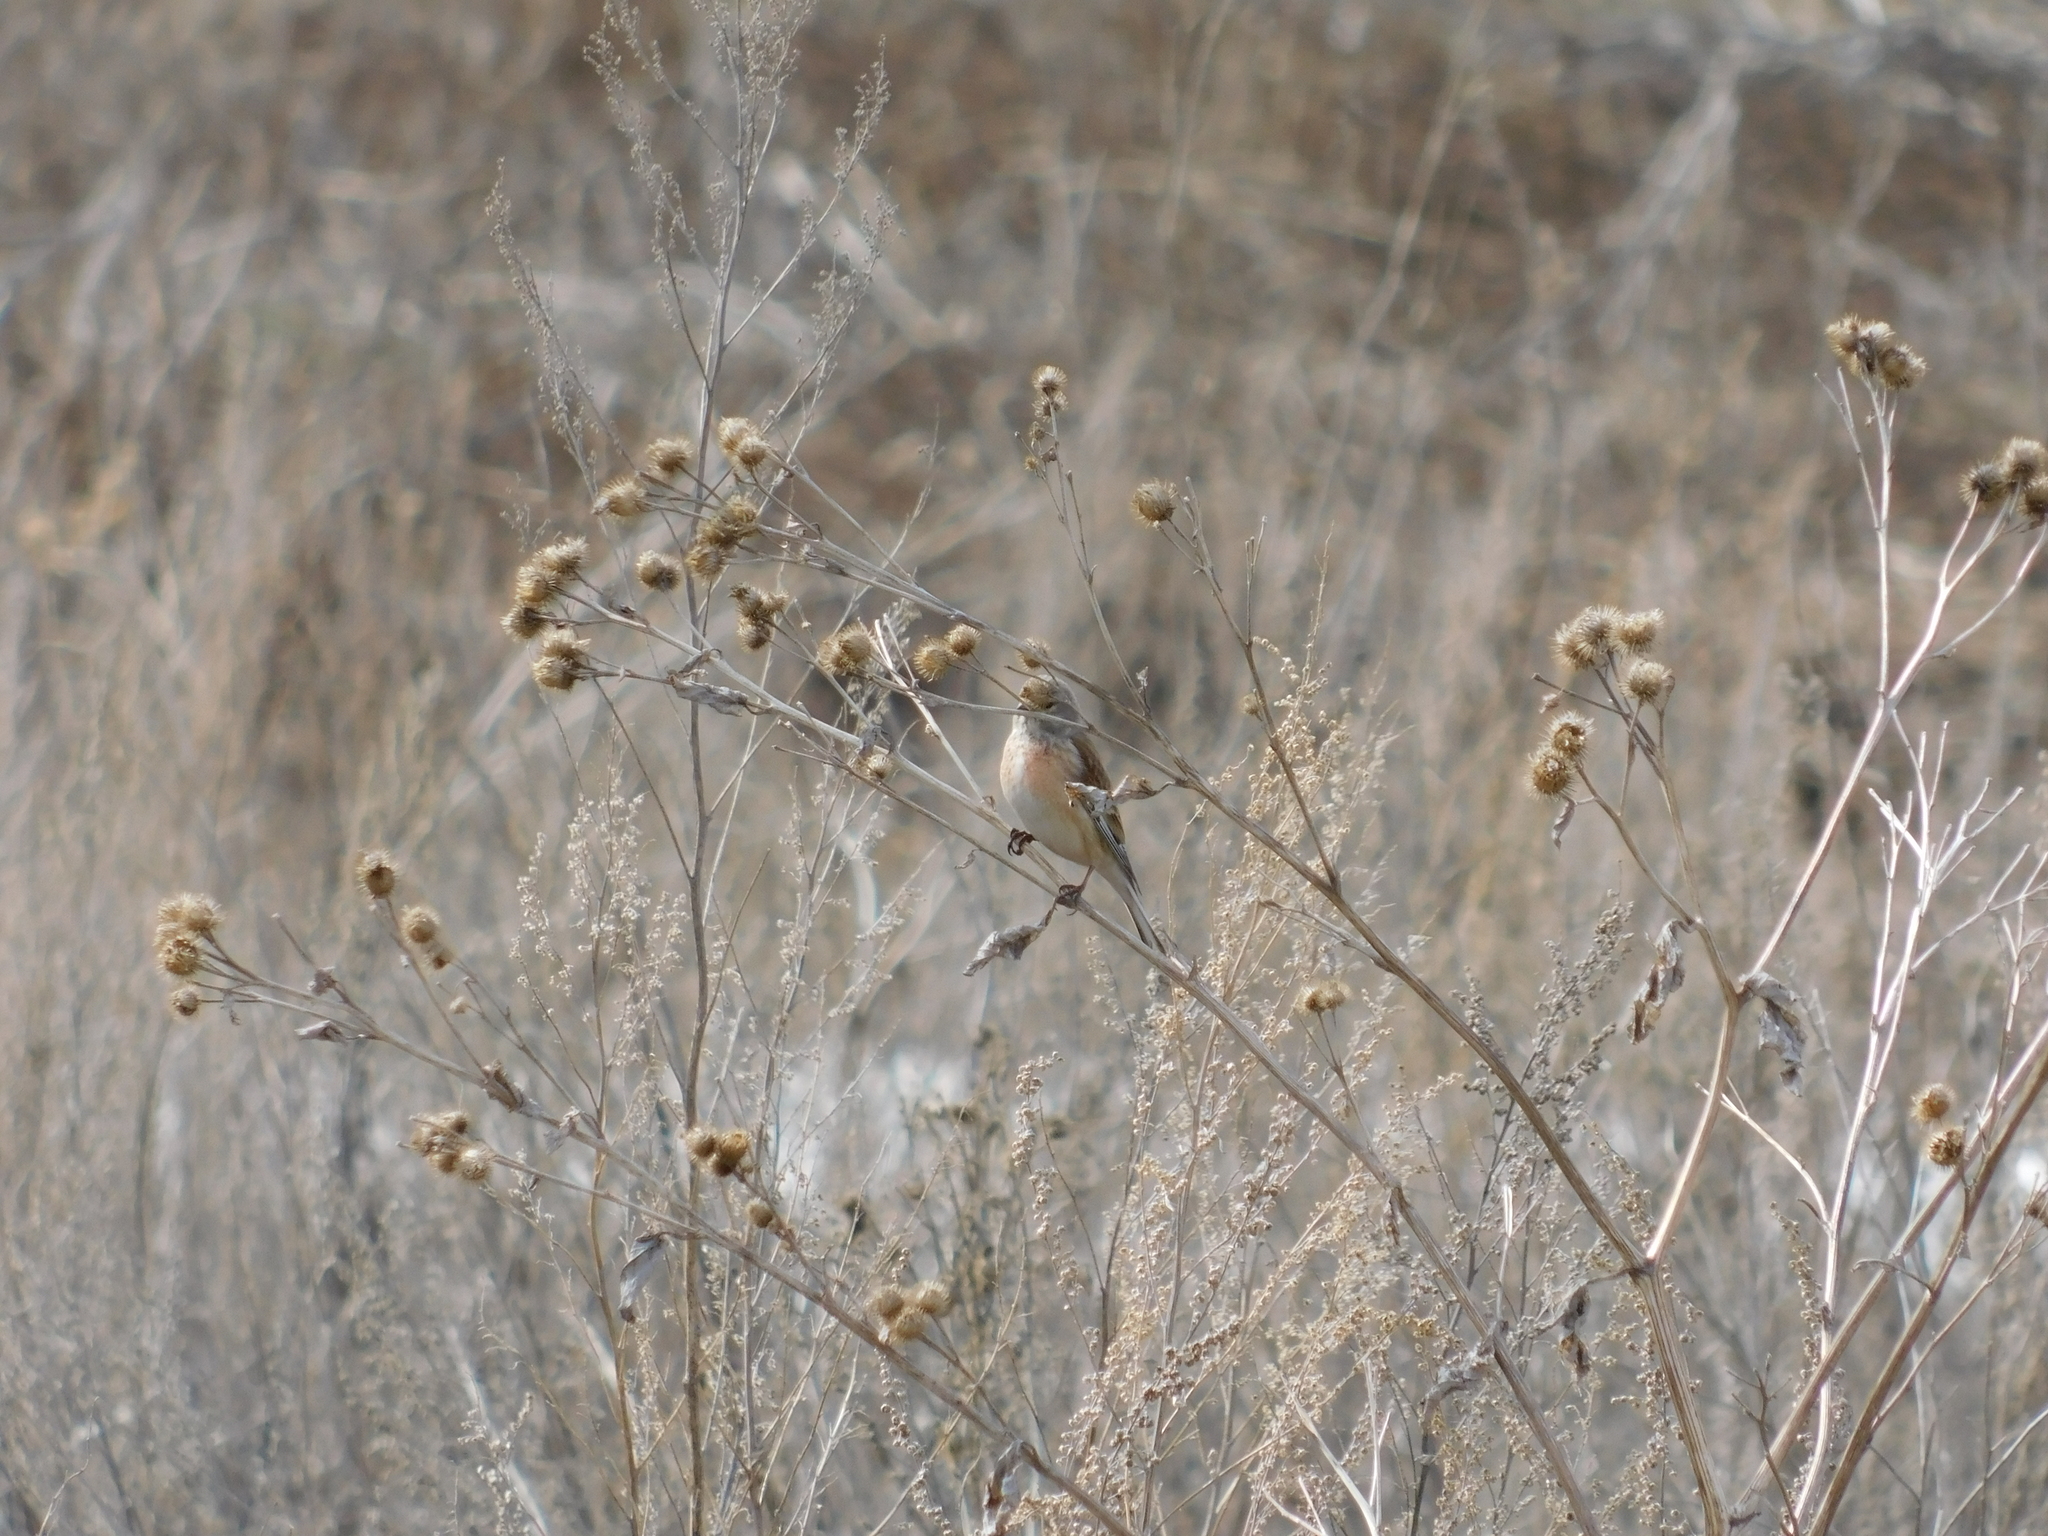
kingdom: Animalia
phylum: Chordata
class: Aves
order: Passeriformes
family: Fringillidae
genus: Linaria
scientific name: Linaria cannabina
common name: Common linnet
